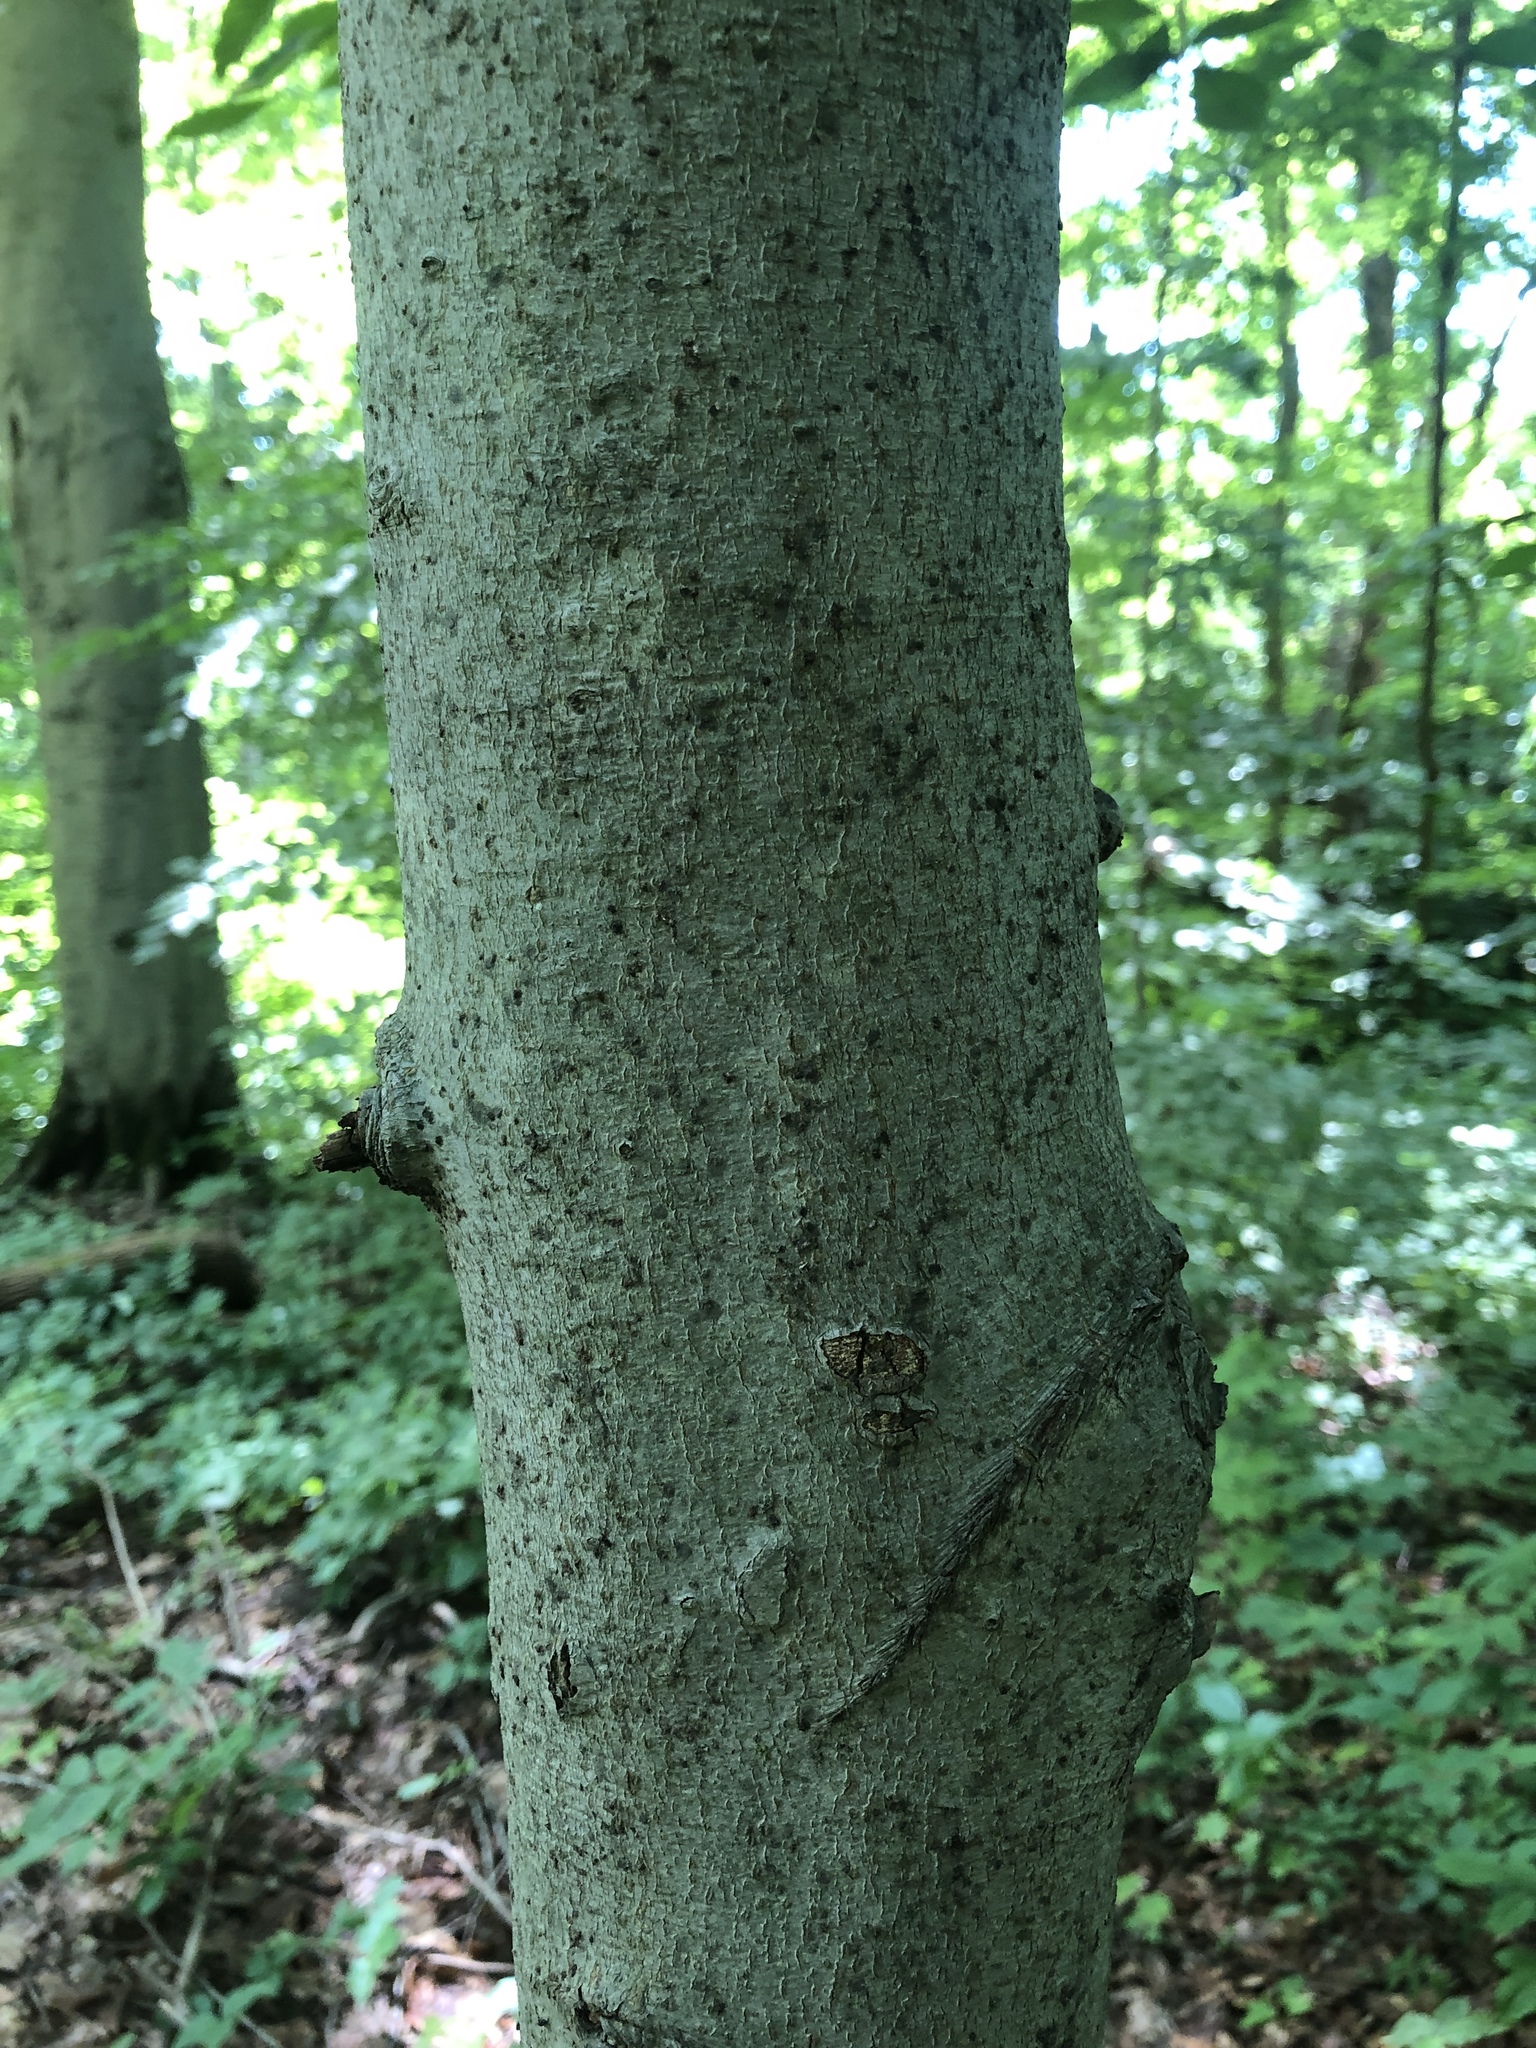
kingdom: Plantae
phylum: Tracheophyta
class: Magnoliopsida
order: Fagales
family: Fagaceae
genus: Fagus
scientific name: Fagus grandifolia
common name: American beech
